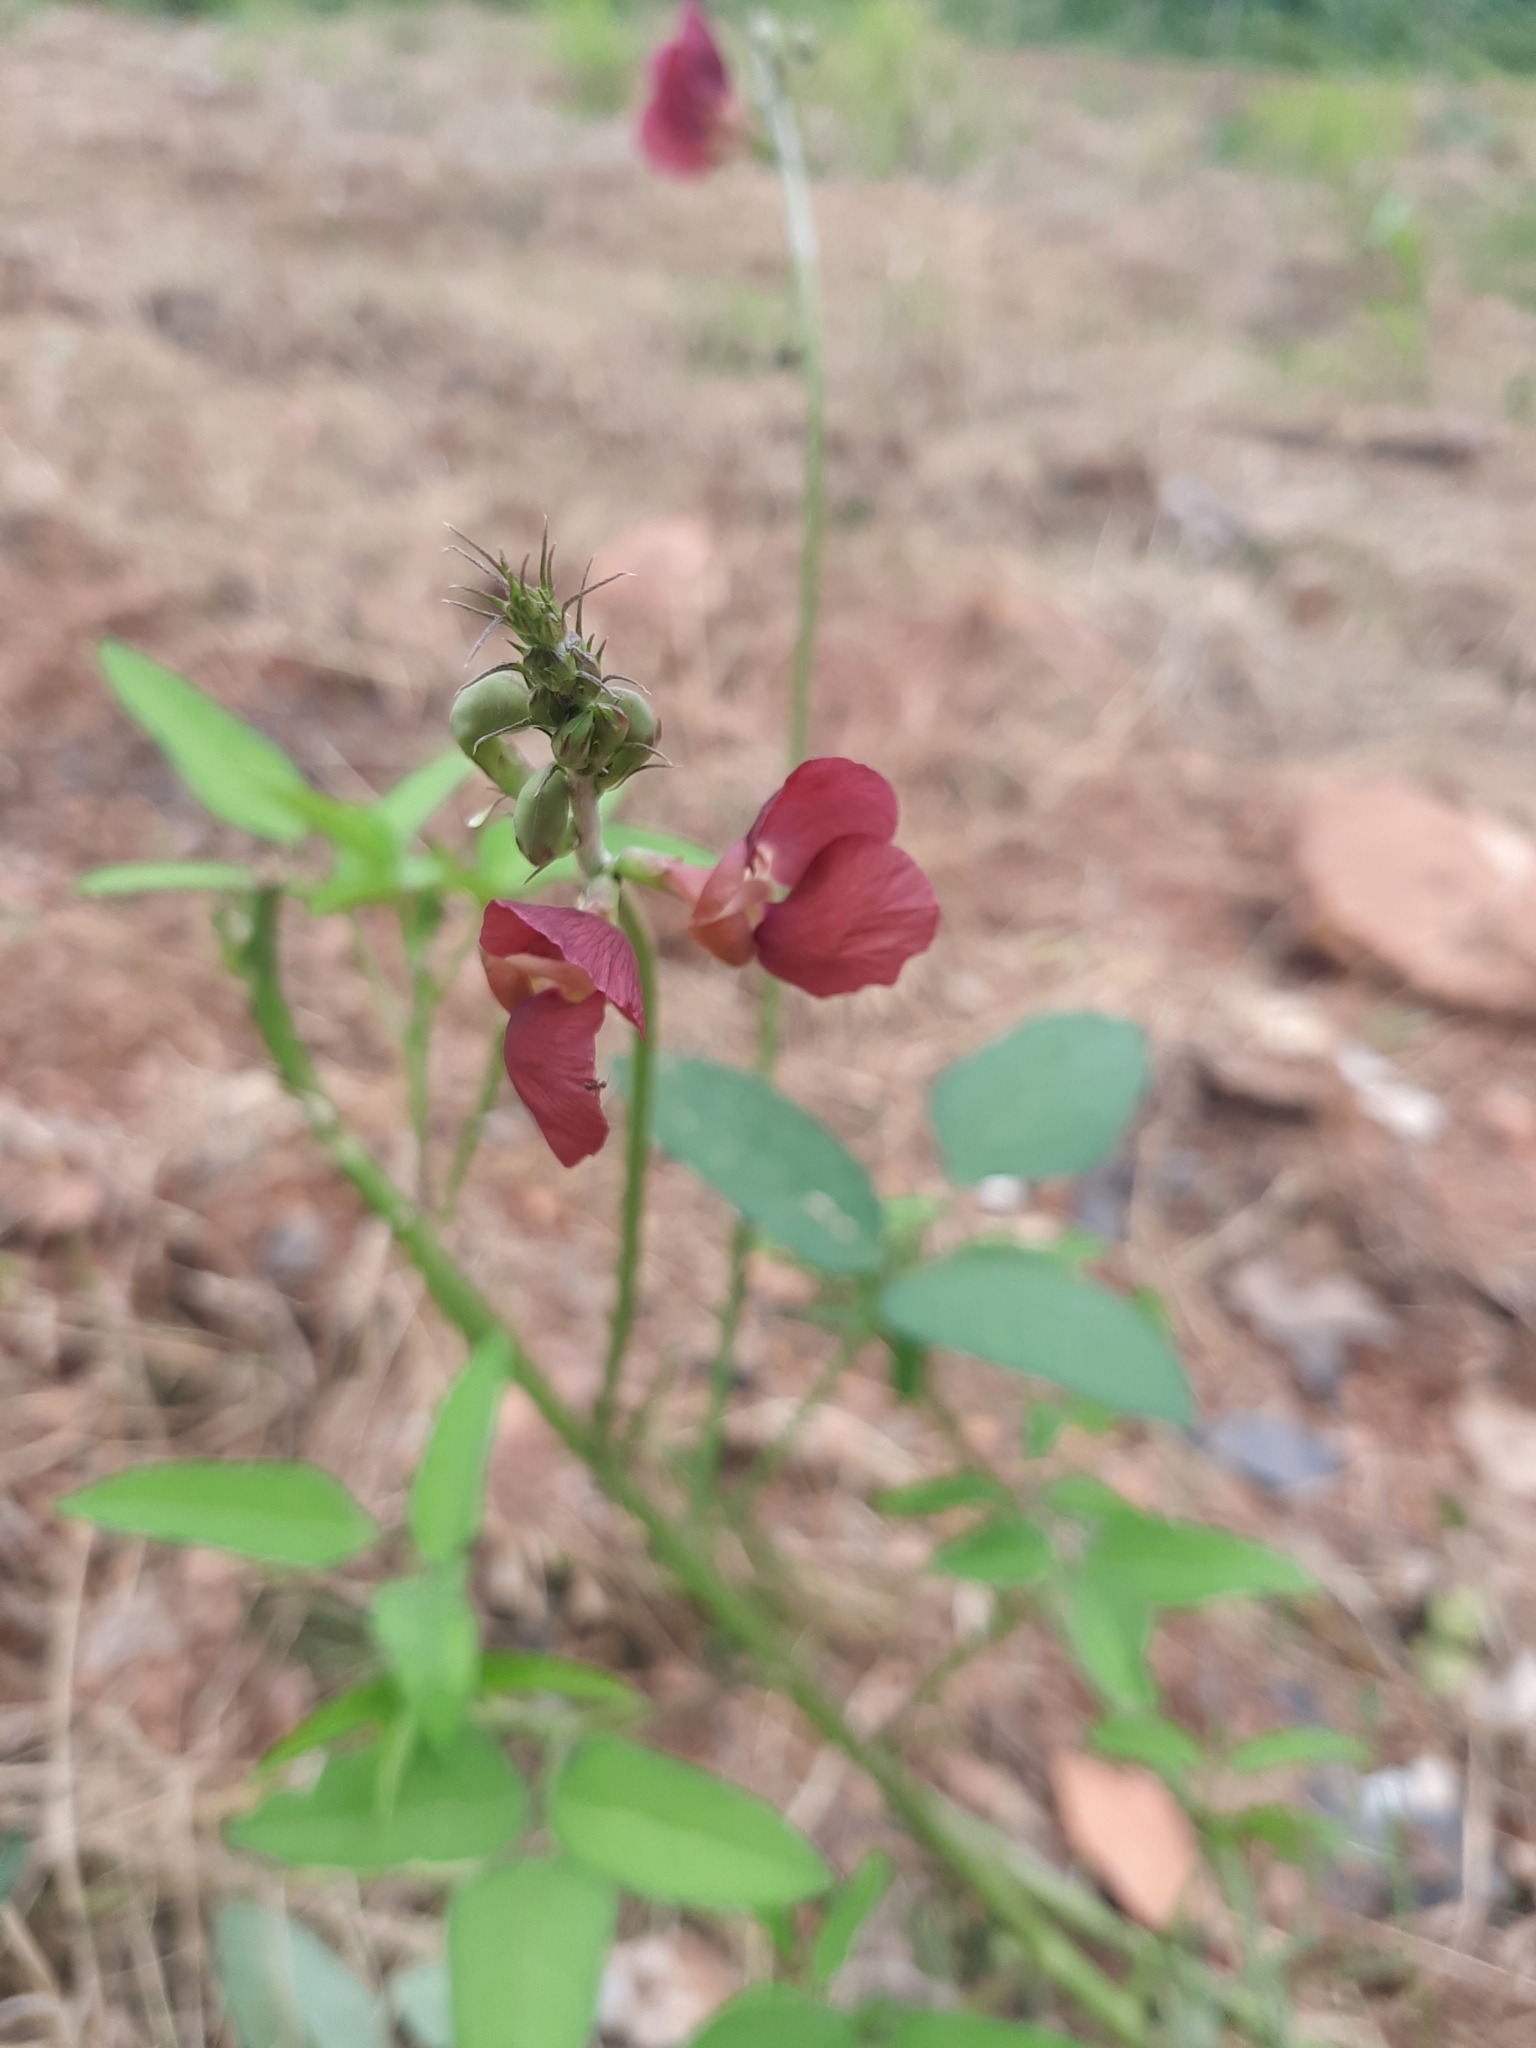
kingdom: Plantae
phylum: Tracheophyta
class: Magnoliopsida
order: Fabales
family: Fabaceae
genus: Macroptilium
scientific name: Macroptilium lathyroides
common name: Wild bushbean
